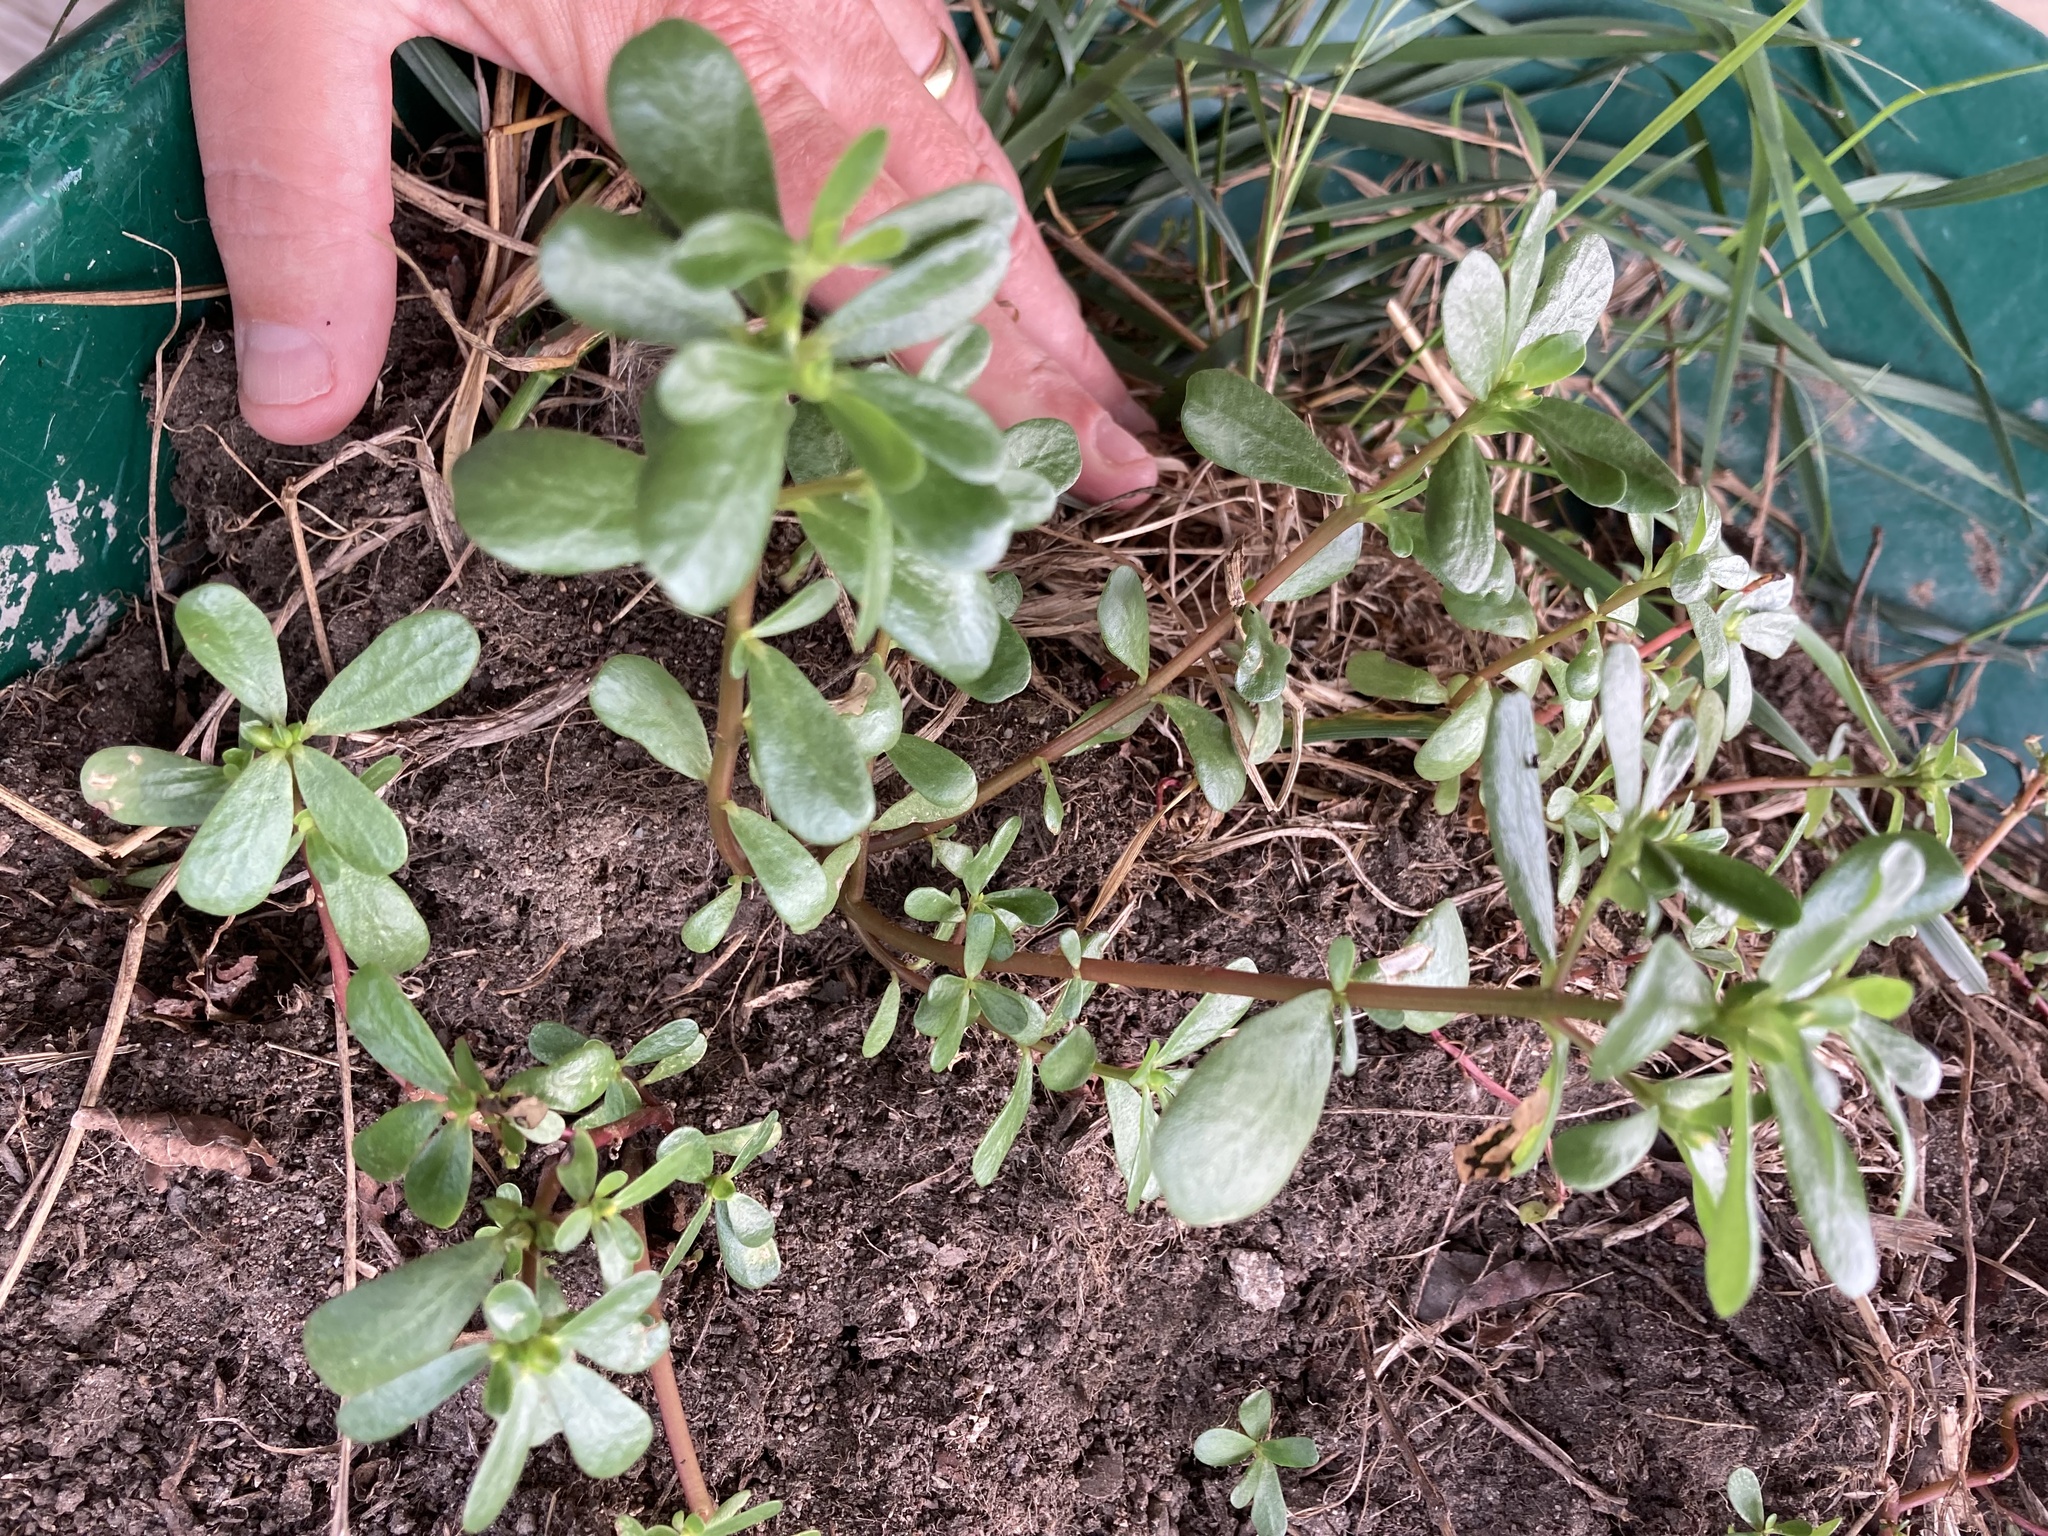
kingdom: Plantae
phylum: Tracheophyta
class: Magnoliopsida
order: Caryophyllales
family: Portulacaceae
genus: Portulaca
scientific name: Portulaca oleracea
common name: Common purslane
